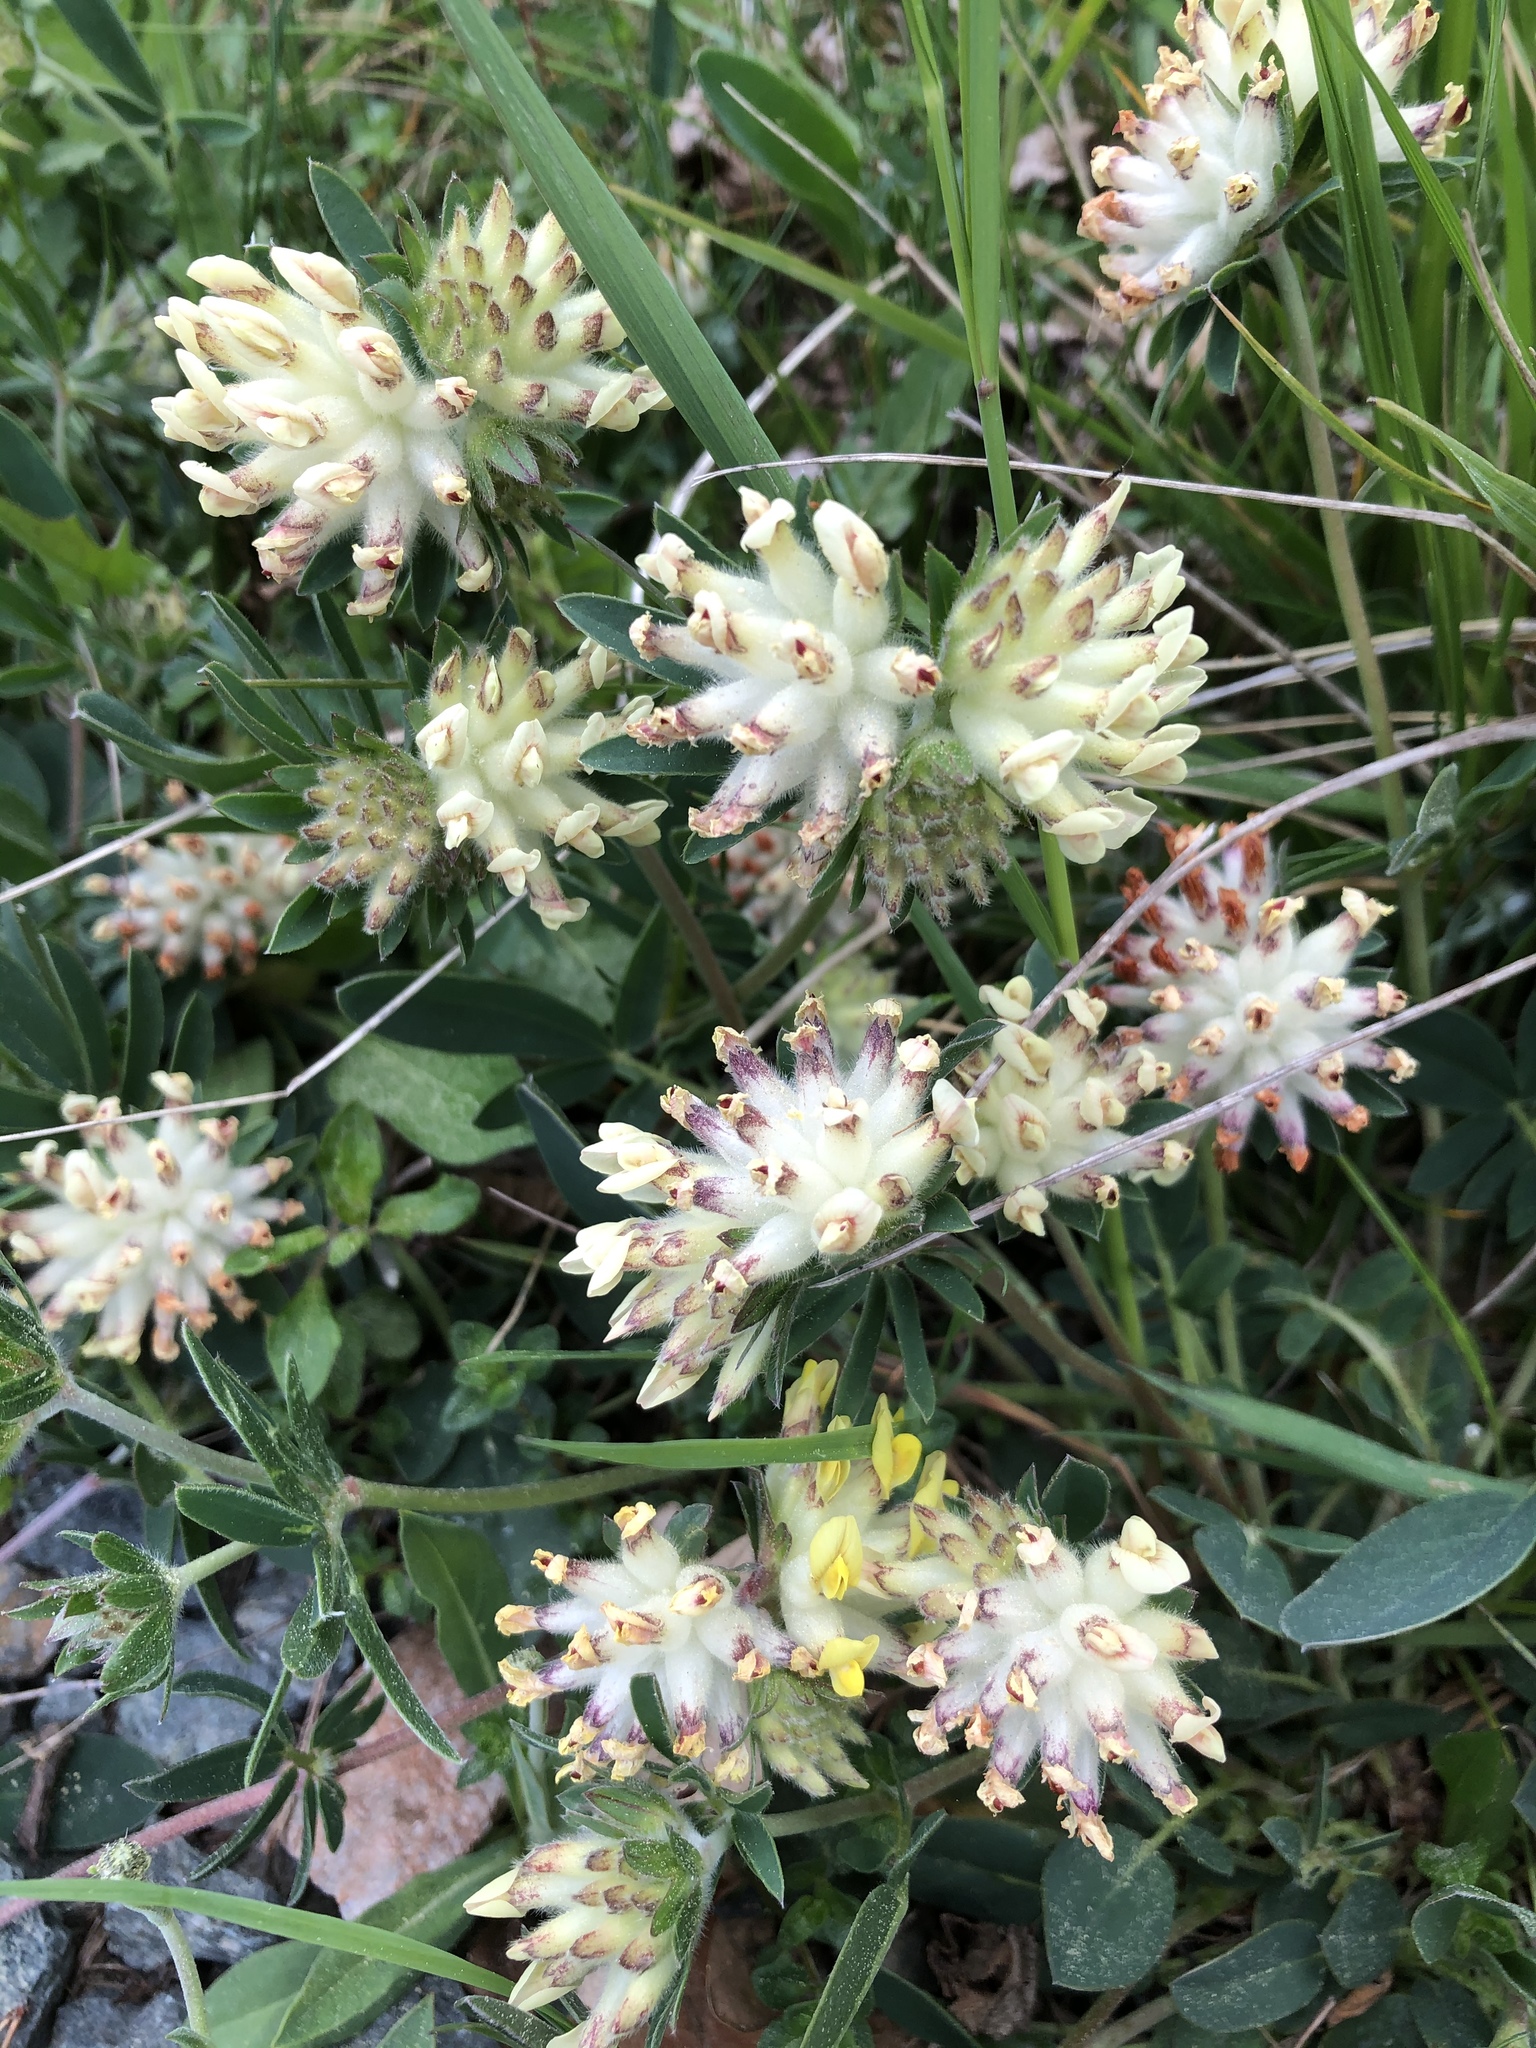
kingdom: Plantae
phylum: Tracheophyta
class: Magnoliopsida
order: Fabales
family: Fabaceae
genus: Anthyllis
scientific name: Anthyllis vulneraria
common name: Kidney vetch
